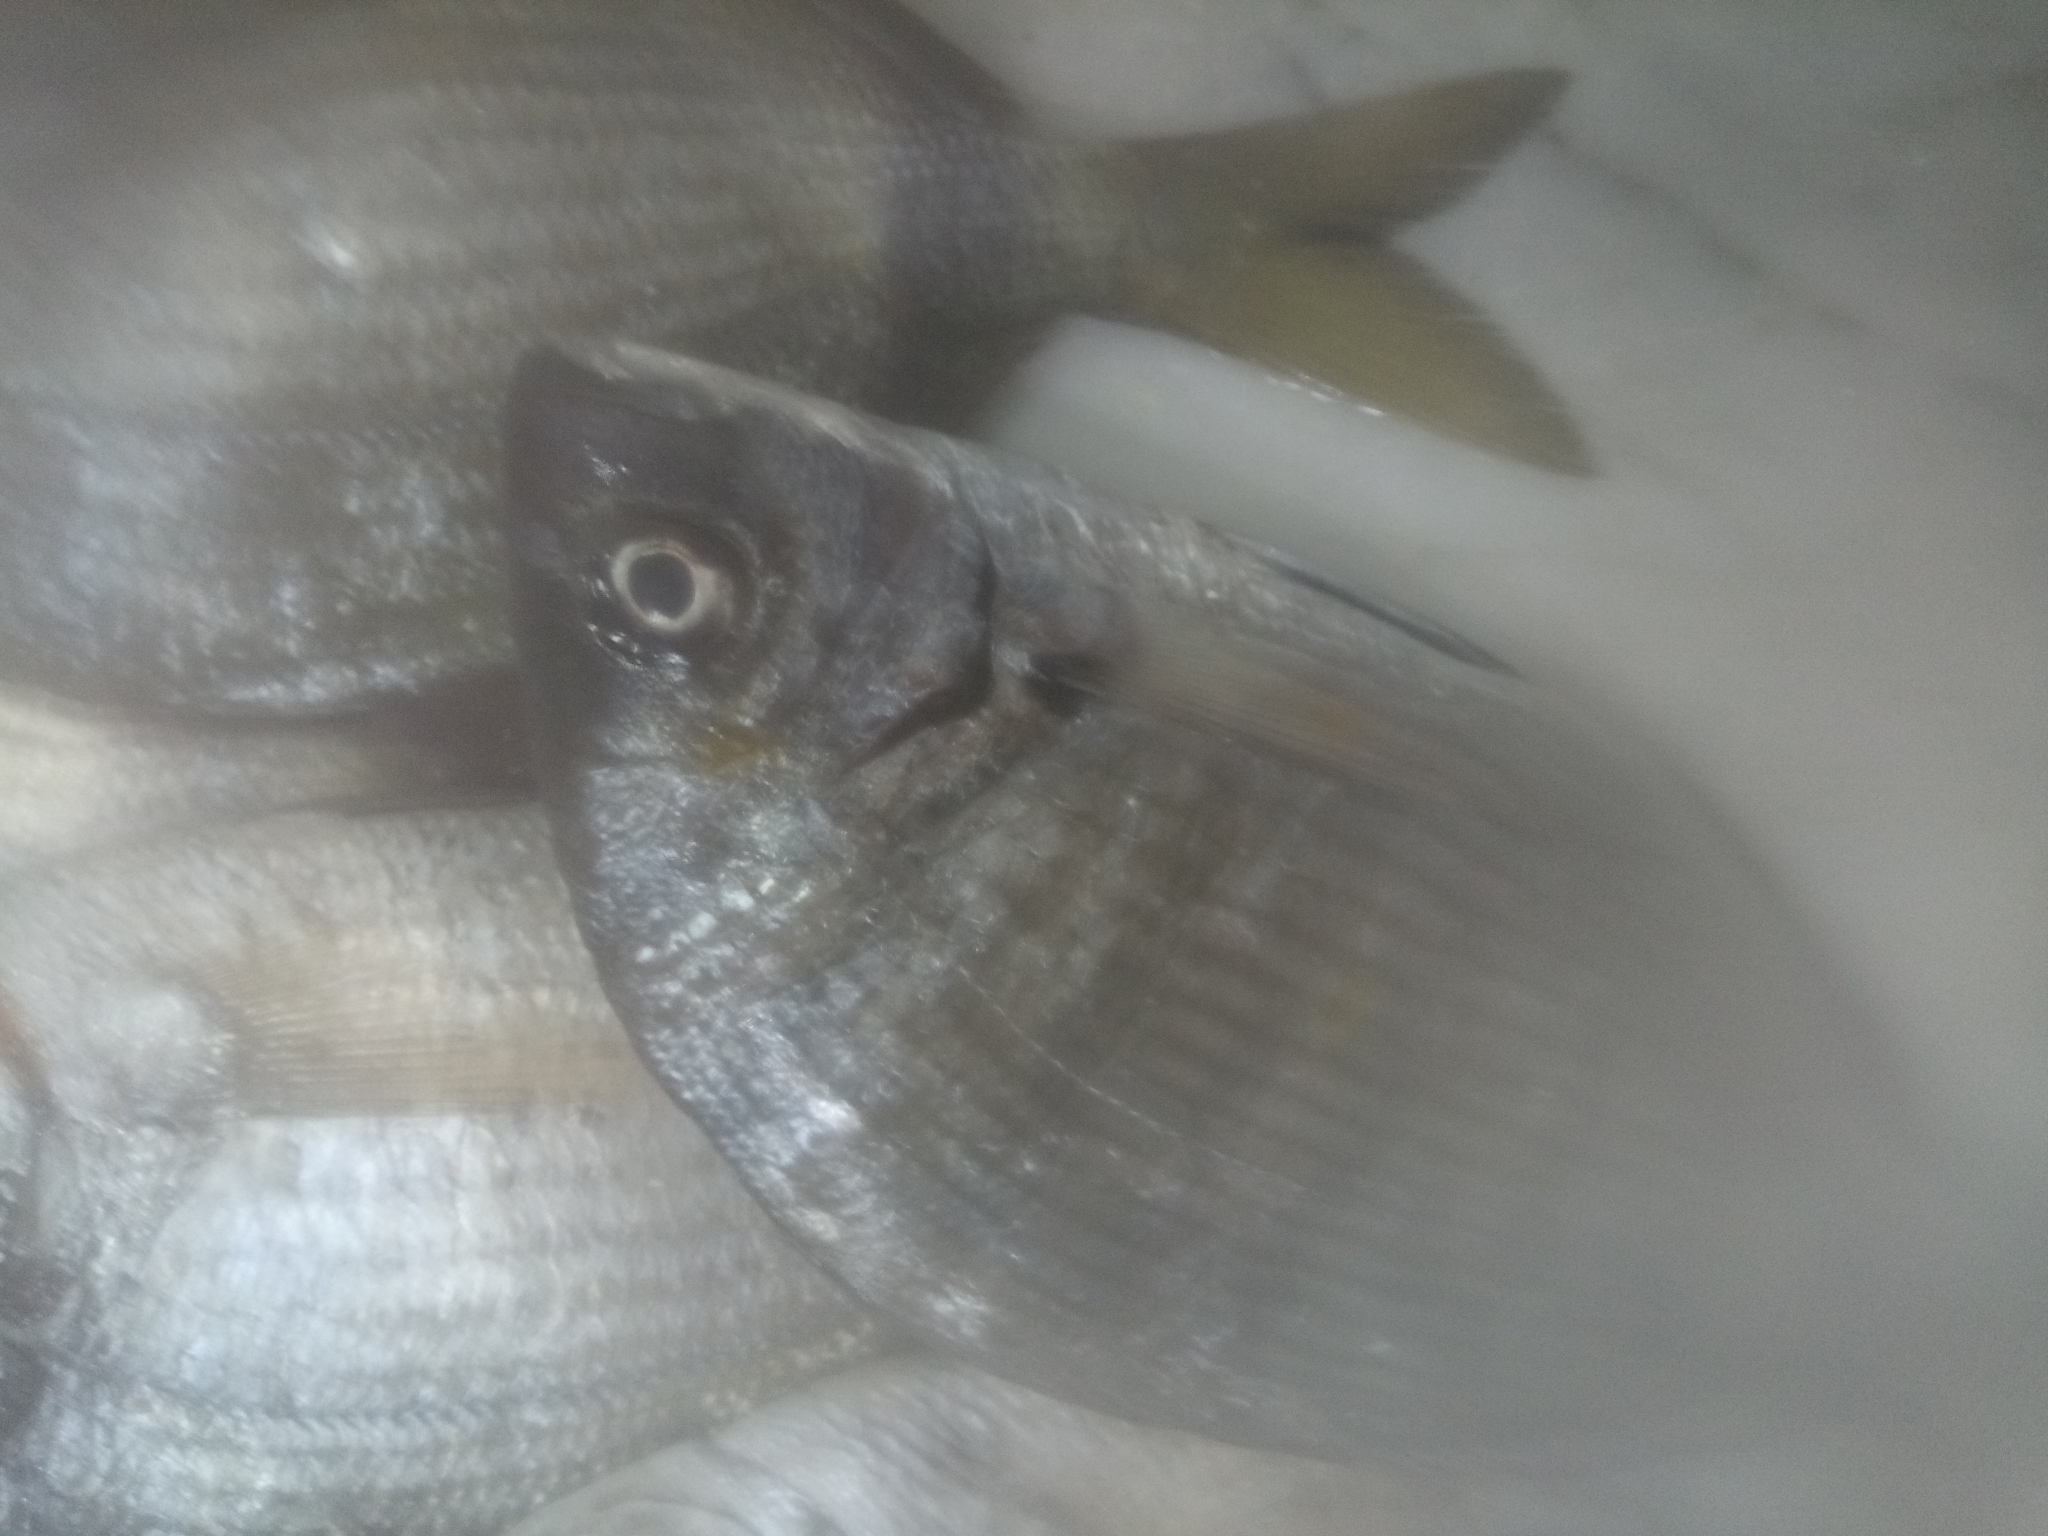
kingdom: Animalia
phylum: Chordata
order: Perciformes
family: Sparidae
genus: Diplodus
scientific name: Diplodus sargus
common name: White seabream
